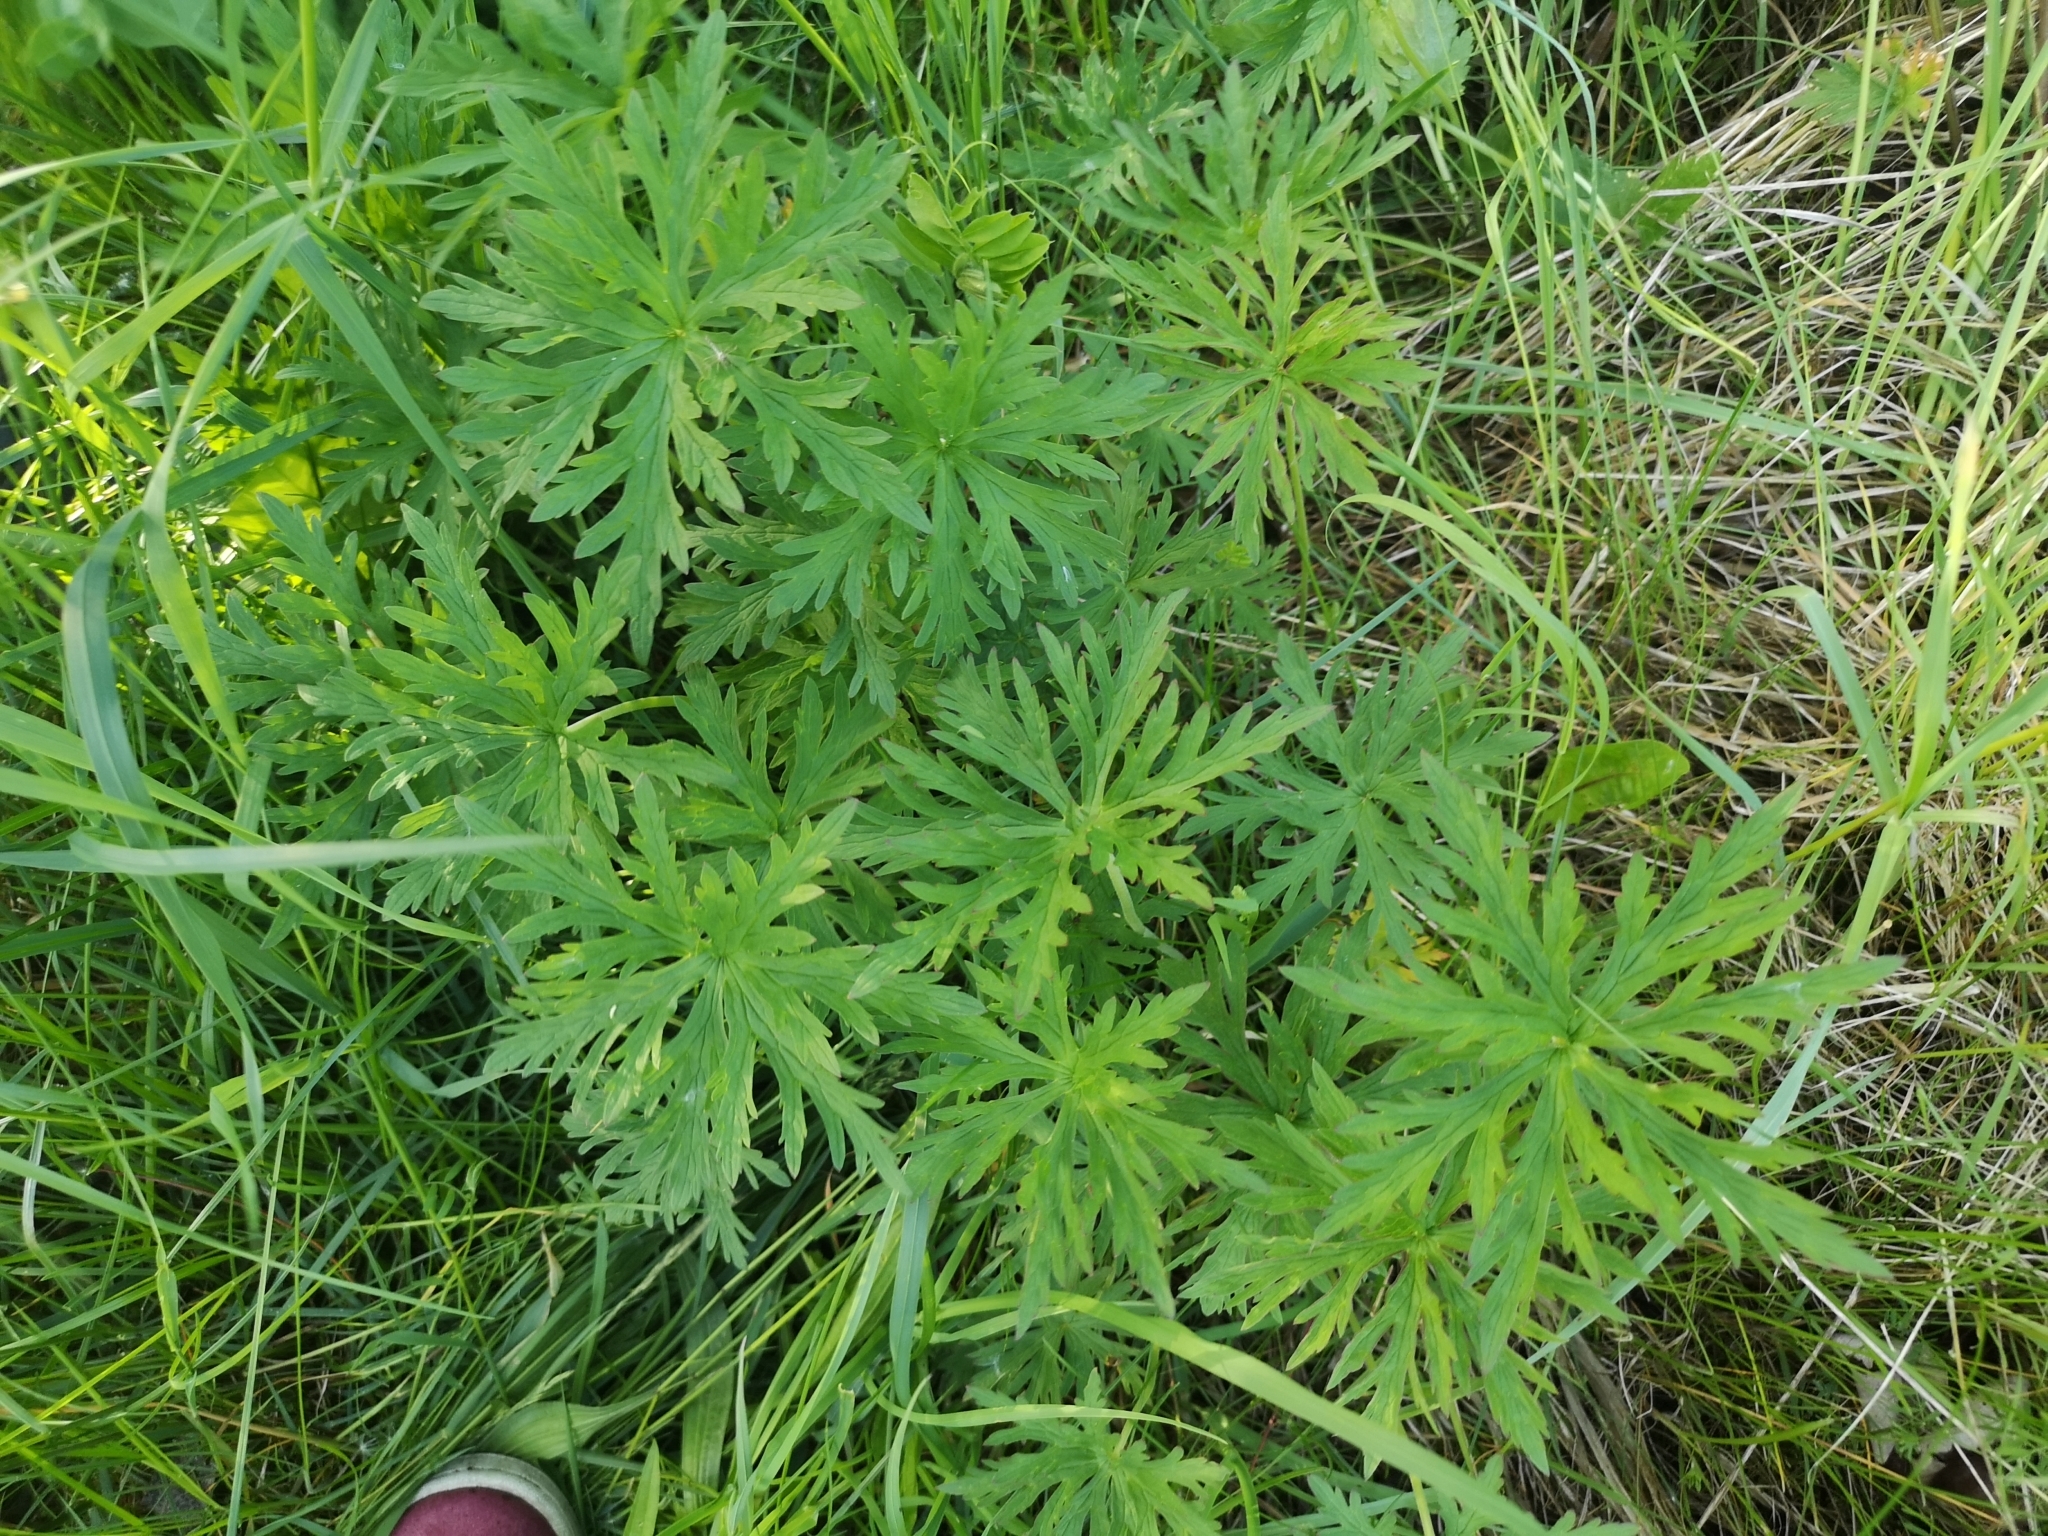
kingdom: Plantae
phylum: Tracheophyta
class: Magnoliopsida
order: Geraniales
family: Geraniaceae
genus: Geranium
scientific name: Geranium pratense
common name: Meadow crane's-bill
